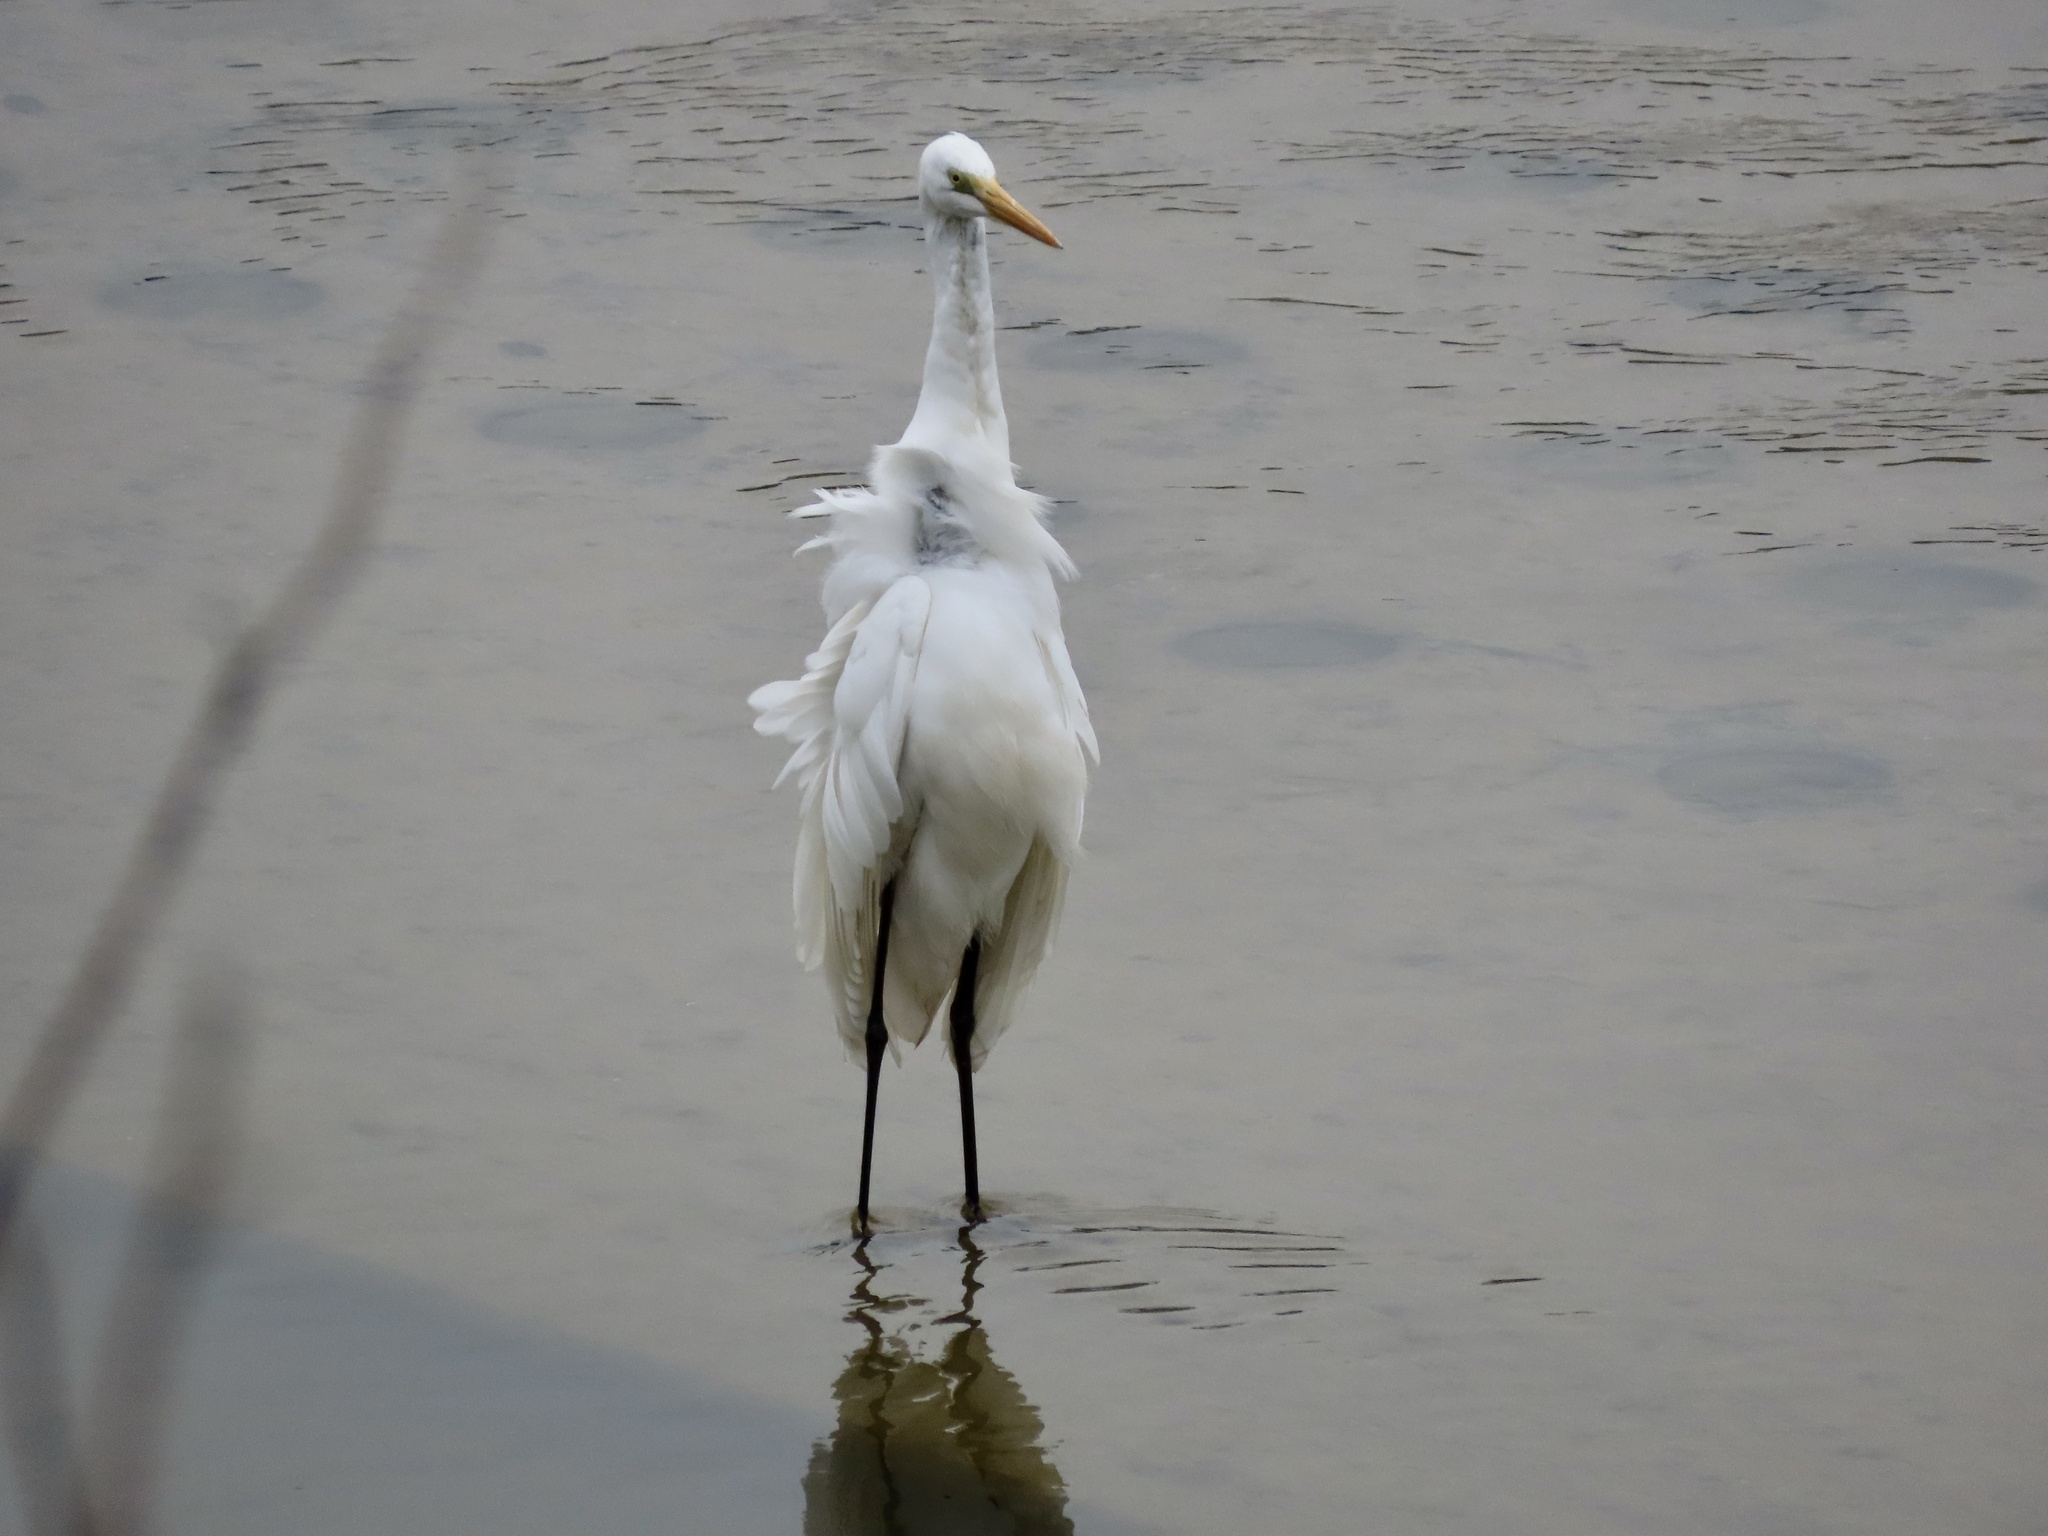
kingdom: Animalia
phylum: Chordata
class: Aves
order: Pelecaniformes
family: Ardeidae
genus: Ardea
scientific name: Ardea alba
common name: Great egret
